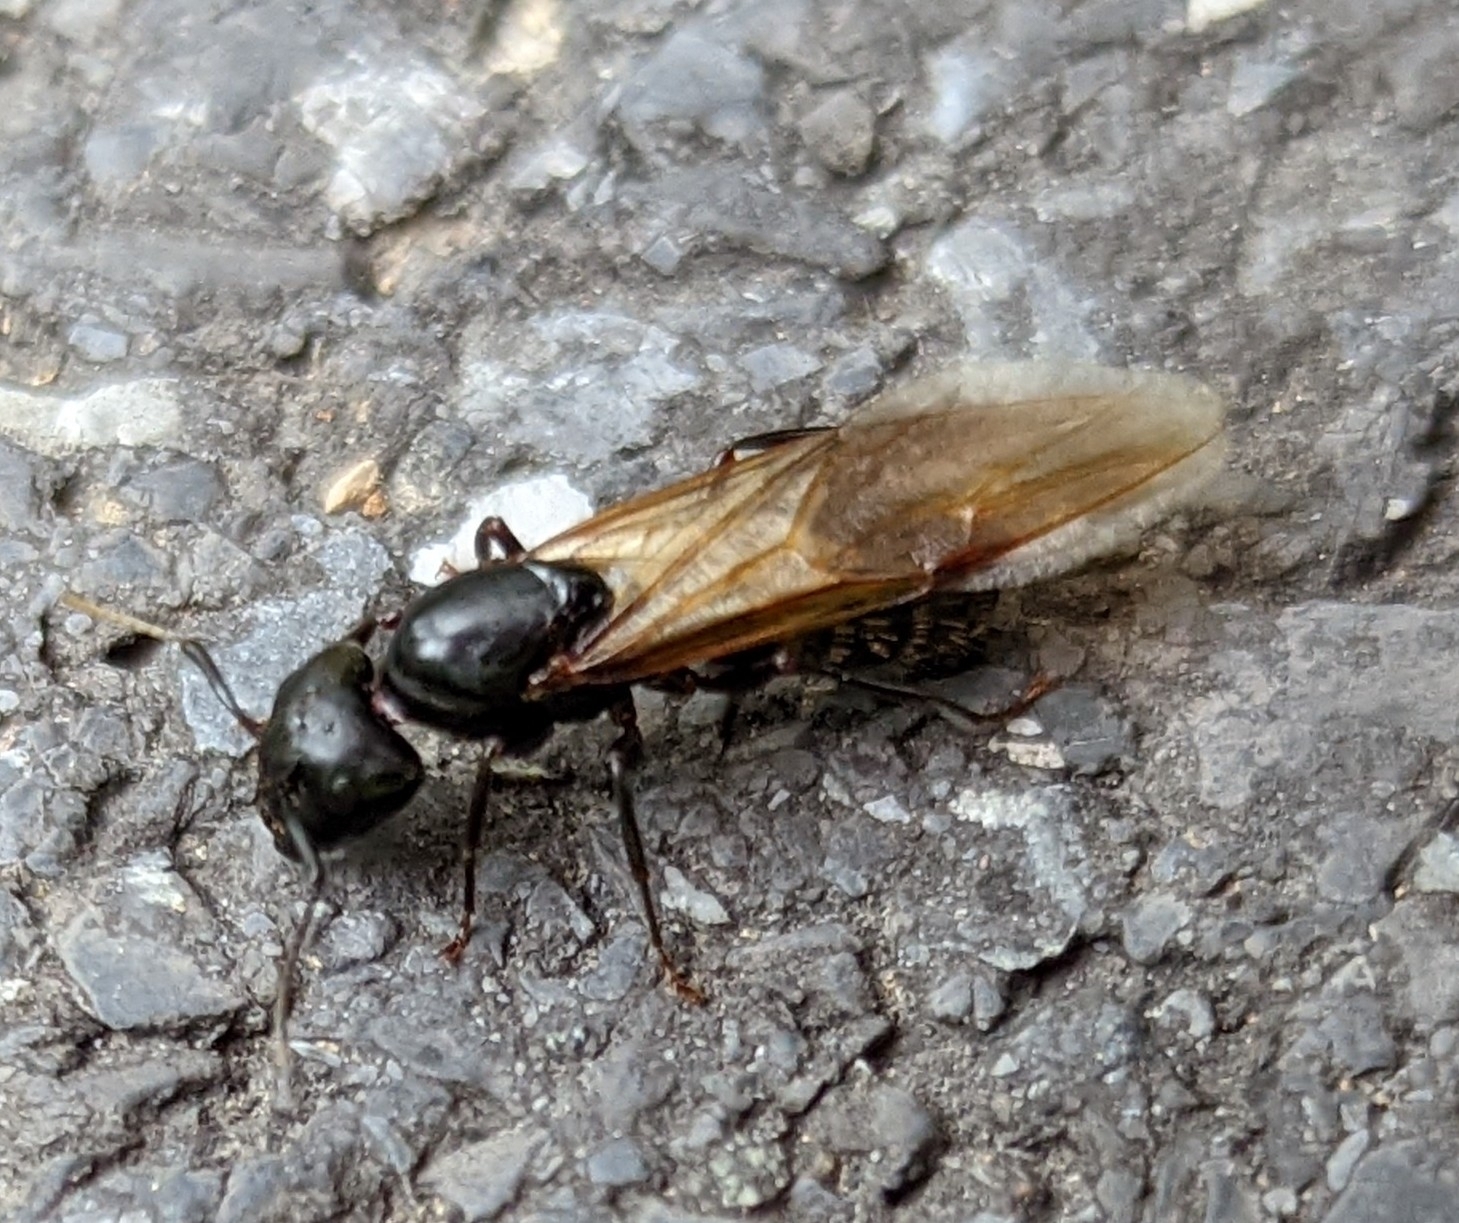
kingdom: Animalia
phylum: Arthropoda
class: Insecta
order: Hymenoptera
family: Formicidae
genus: Camponotus
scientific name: Camponotus pennsylvanicus
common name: Black carpenter ant
